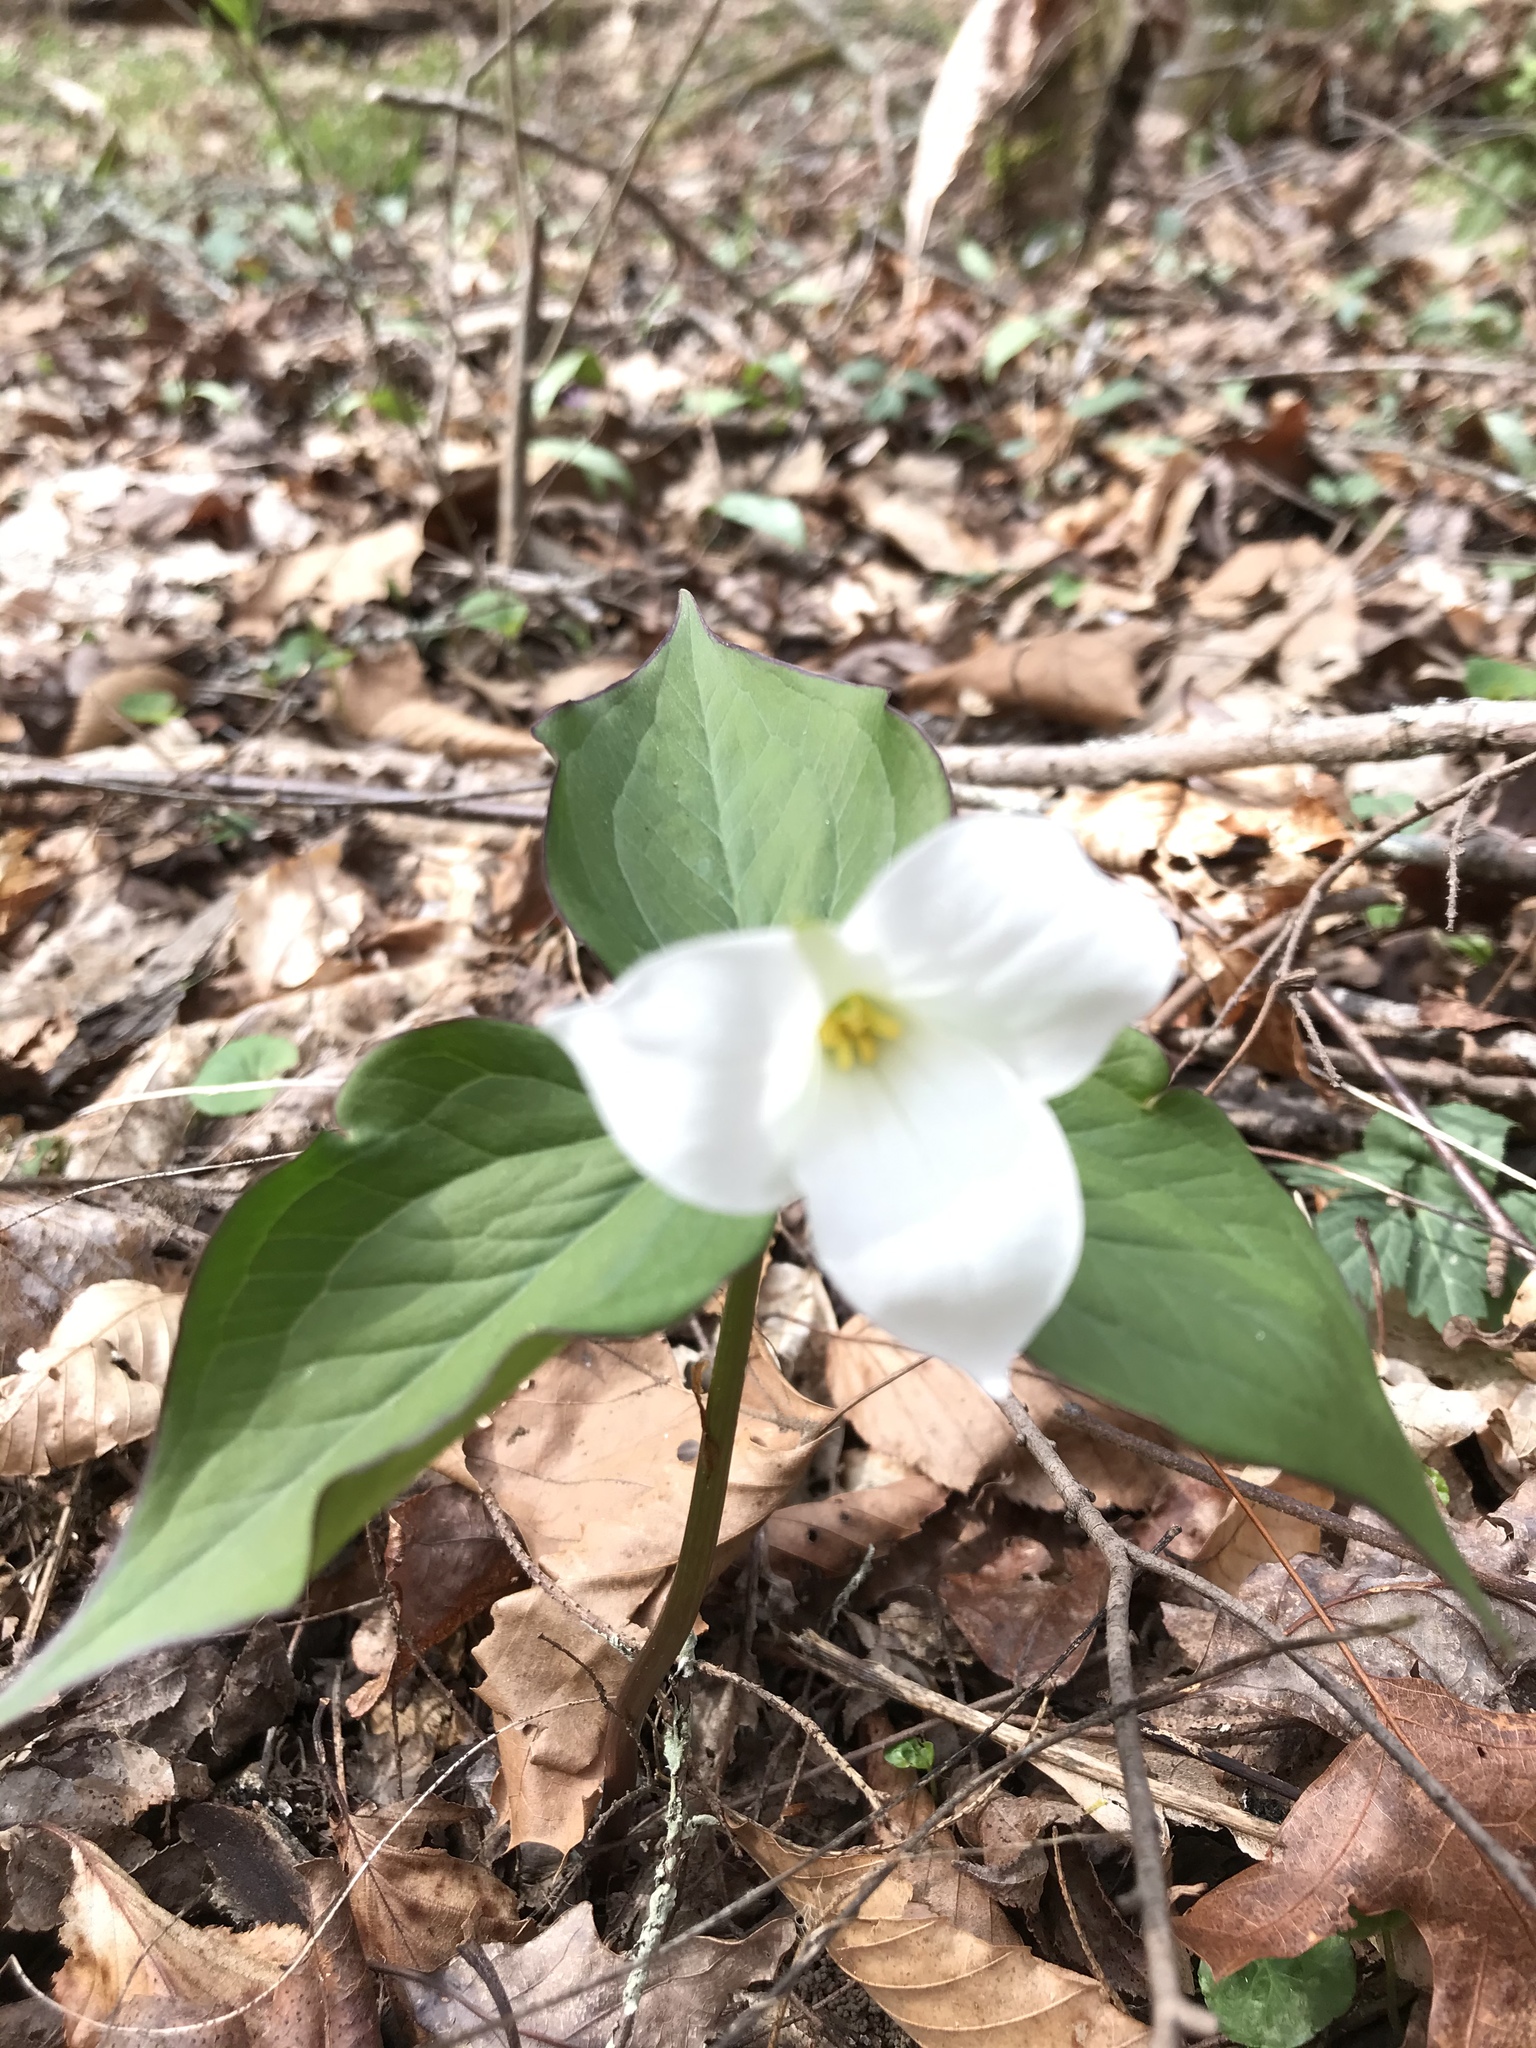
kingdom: Plantae
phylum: Tracheophyta
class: Liliopsida
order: Liliales
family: Melanthiaceae
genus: Trillium
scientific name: Trillium grandiflorum
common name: Great white trillium
